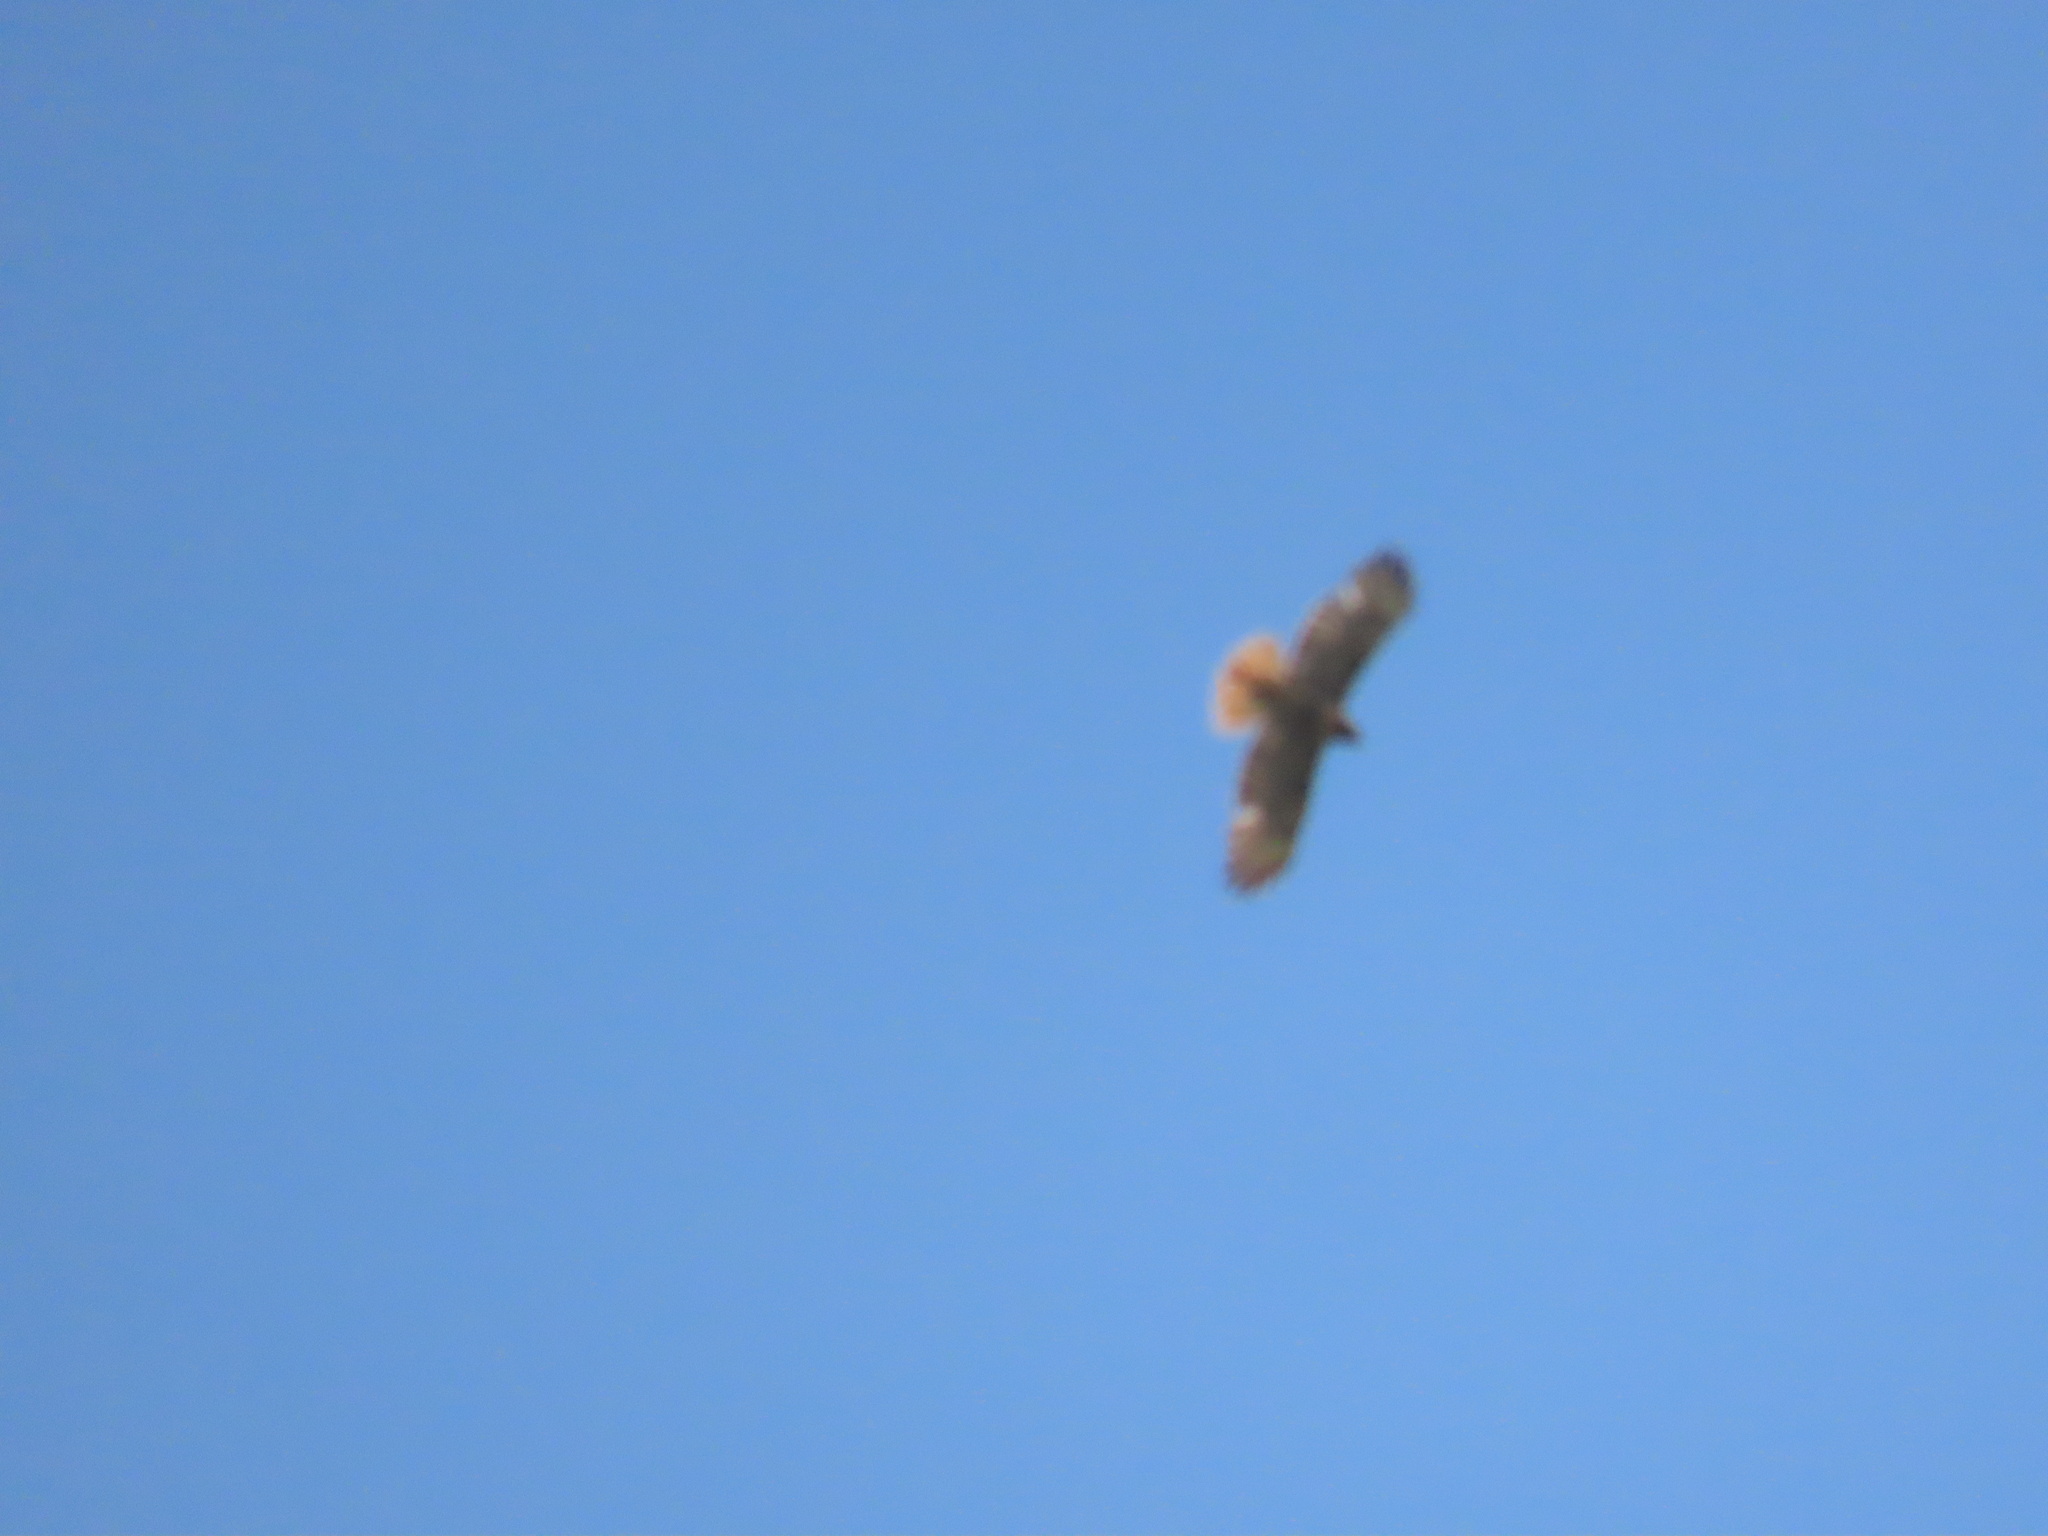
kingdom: Animalia
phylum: Chordata
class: Aves
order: Accipitriformes
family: Accipitridae
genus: Buteo
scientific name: Buteo jamaicensis
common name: Red-tailed hawk
